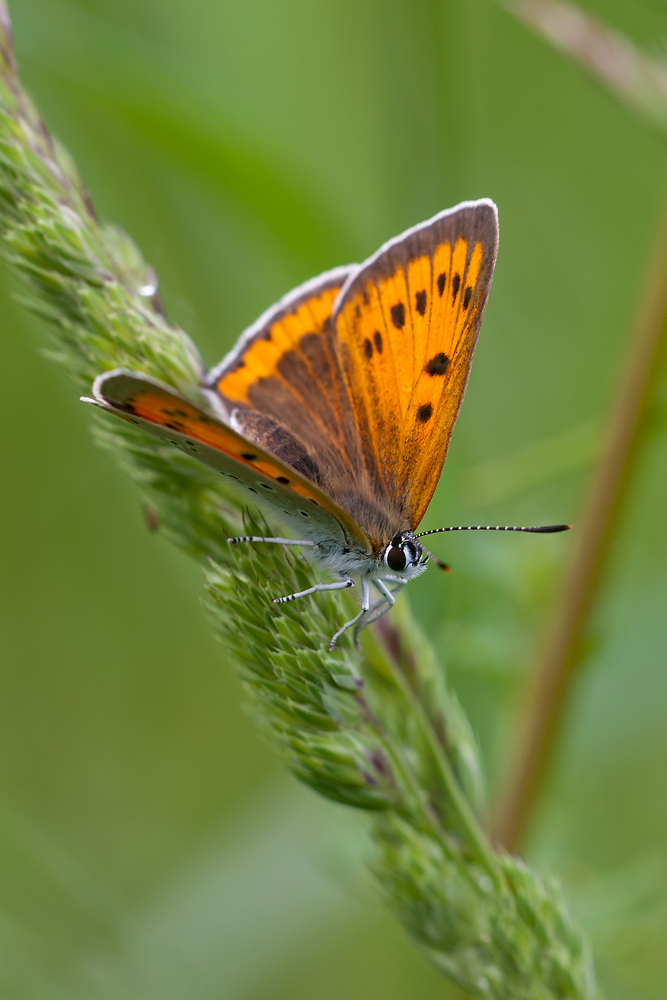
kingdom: Animalia
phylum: Arthropoda
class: Insecta
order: Lepidoptera
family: Lycaenidae
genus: Lycaena
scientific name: Lycaena dispar
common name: Large copper
